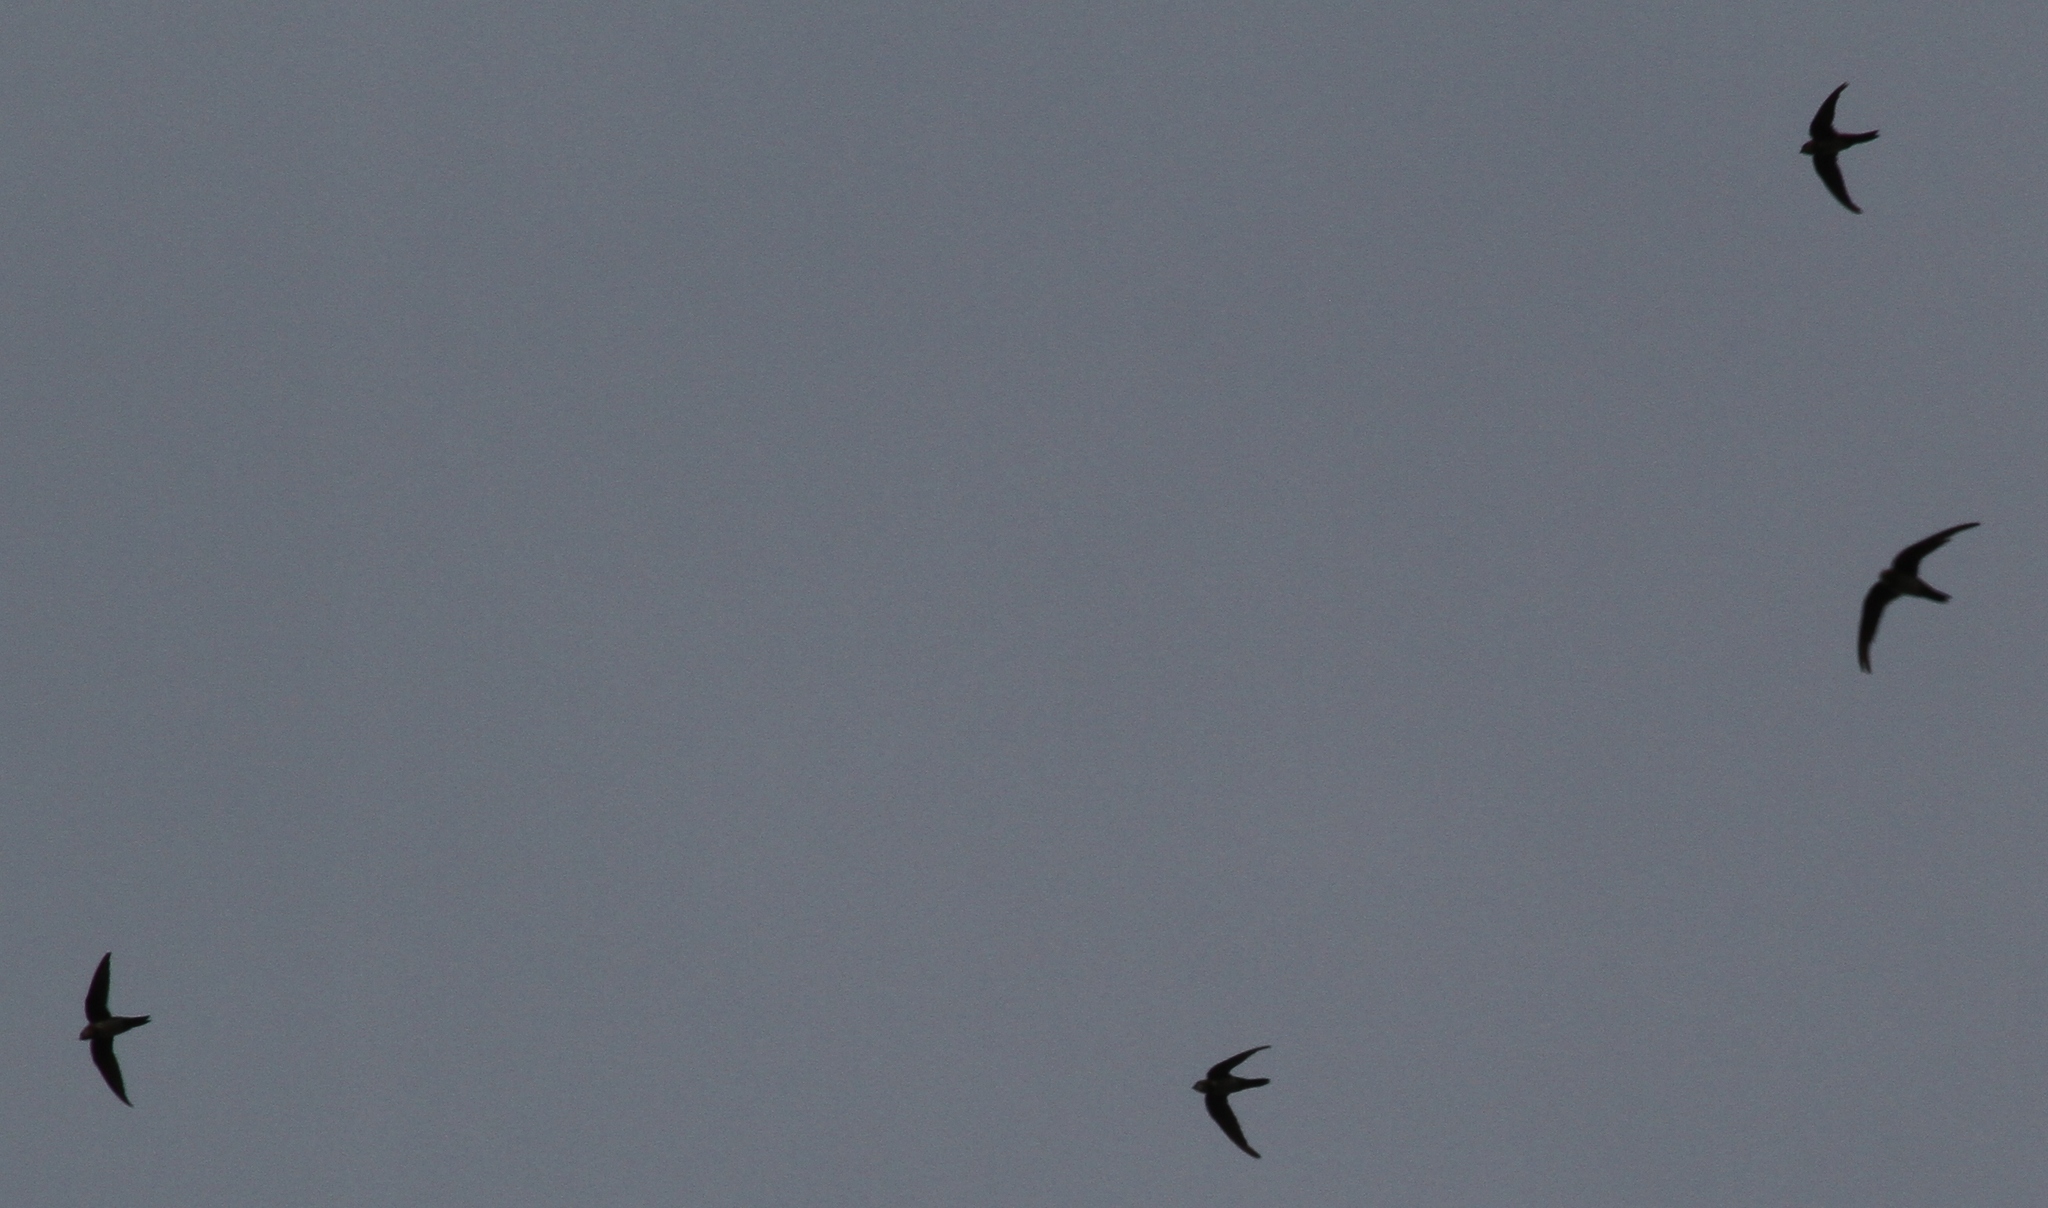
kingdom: Animalia
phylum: Chordata
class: Aves
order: Apodiformes
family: Apodidae
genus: Tachymarptis
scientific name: Tachymarptis melba
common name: Alpine swift
